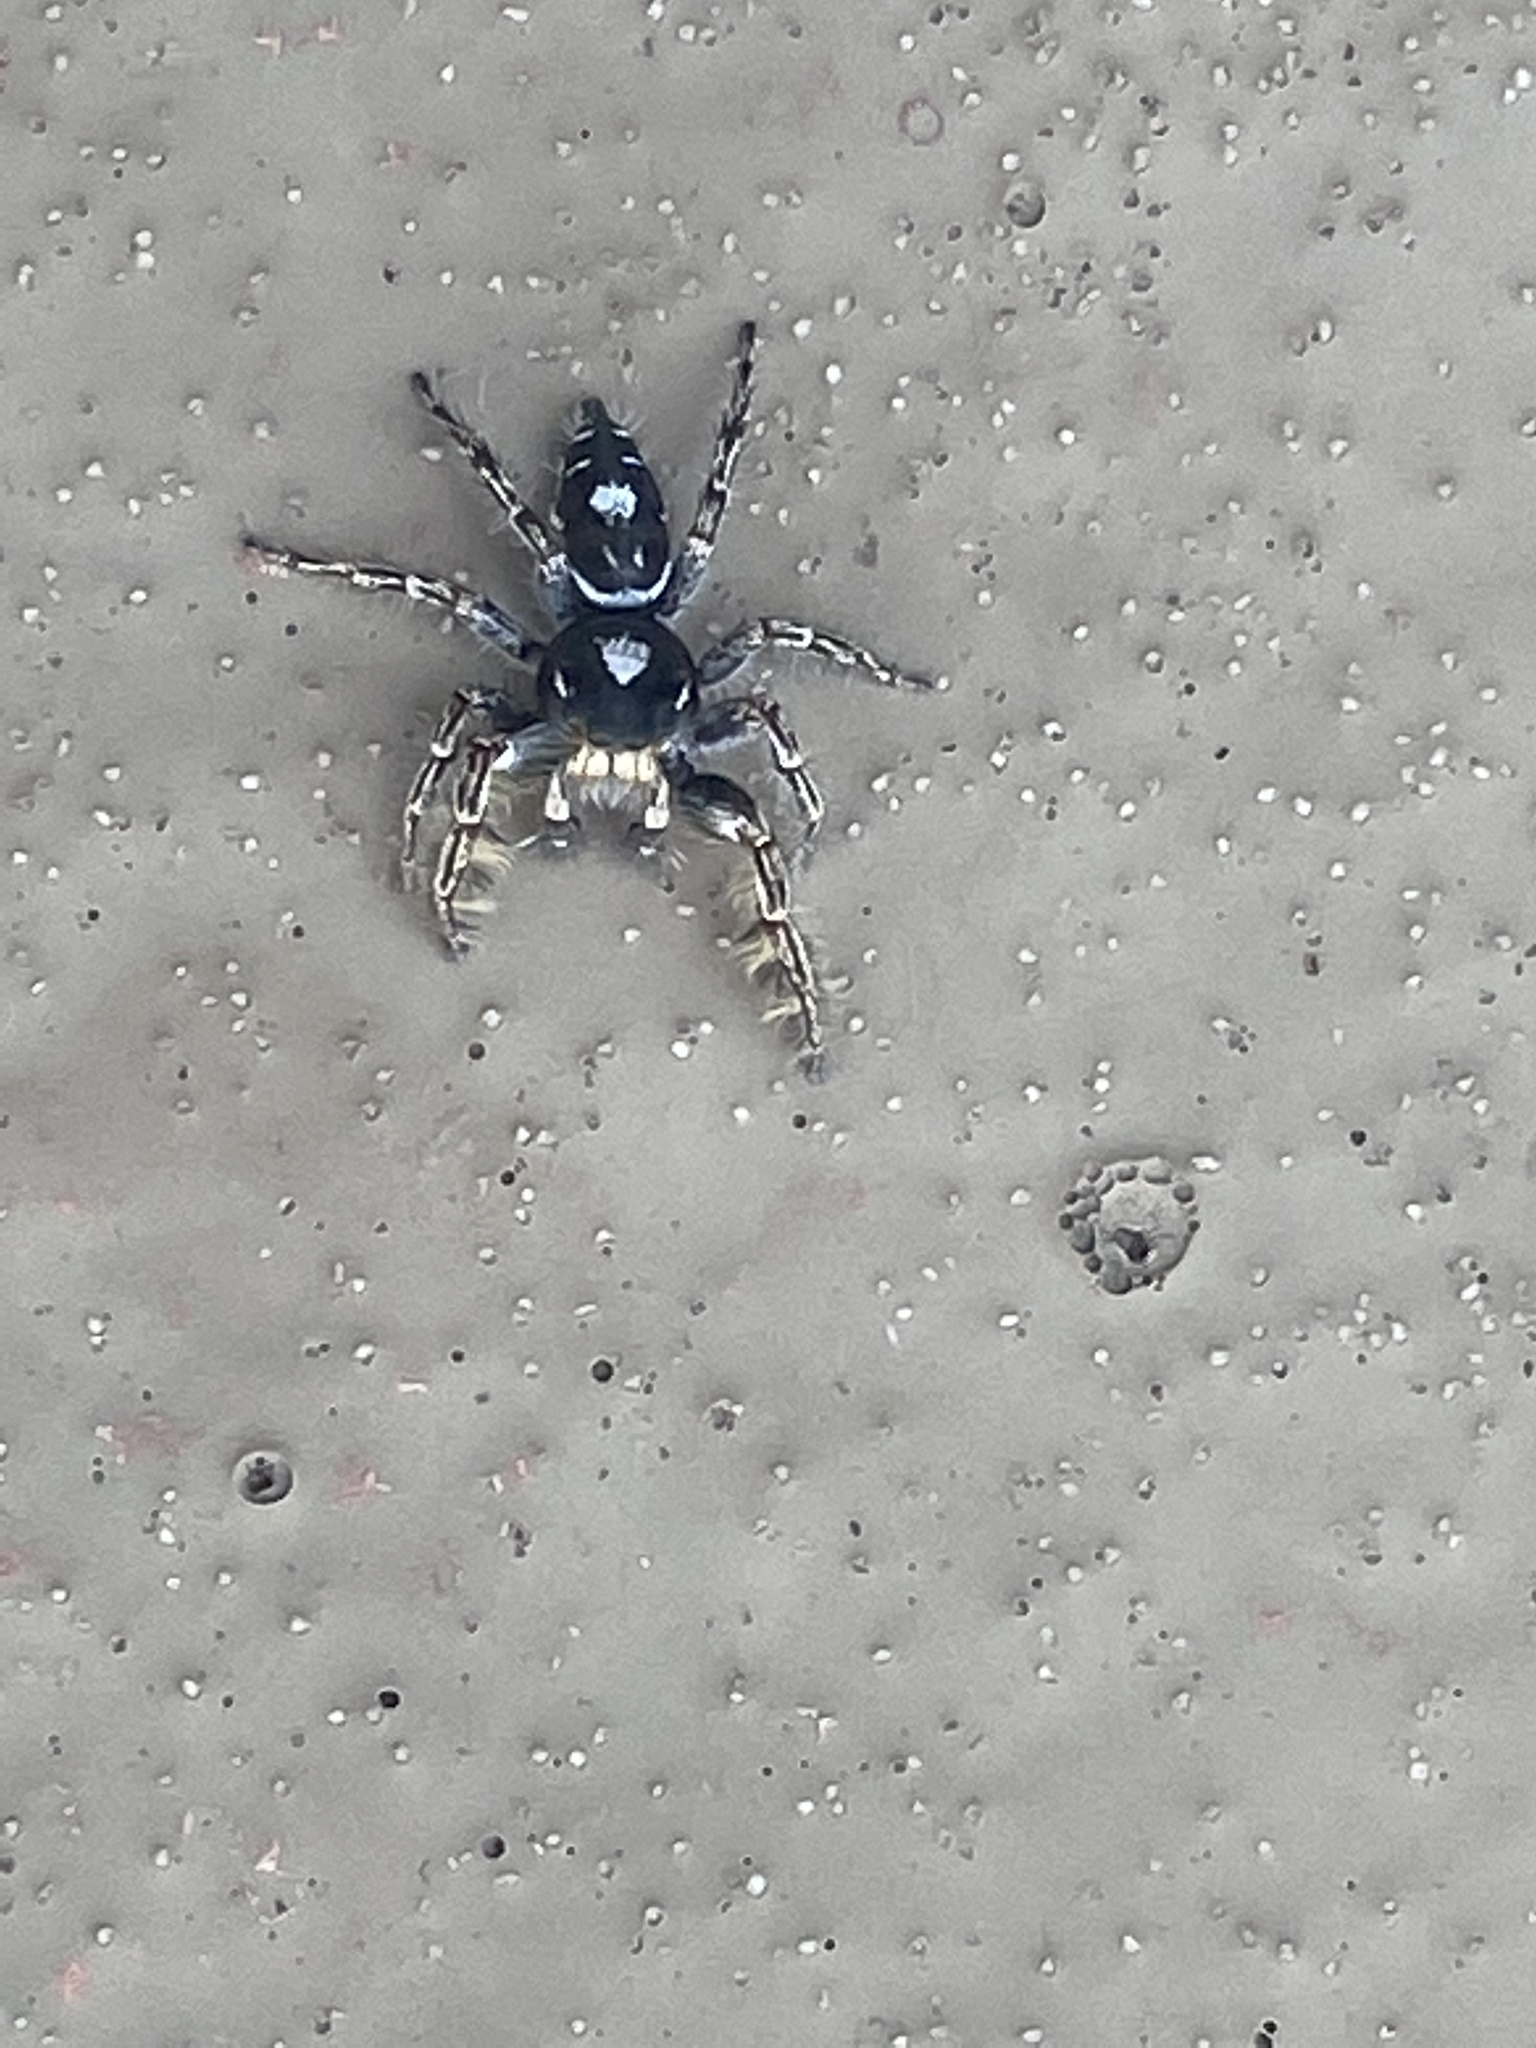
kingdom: Animalia
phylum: Arthropoda
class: Arachnida
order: Araneae
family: Salticidae
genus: Phidippus
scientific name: Phidippus putnami
